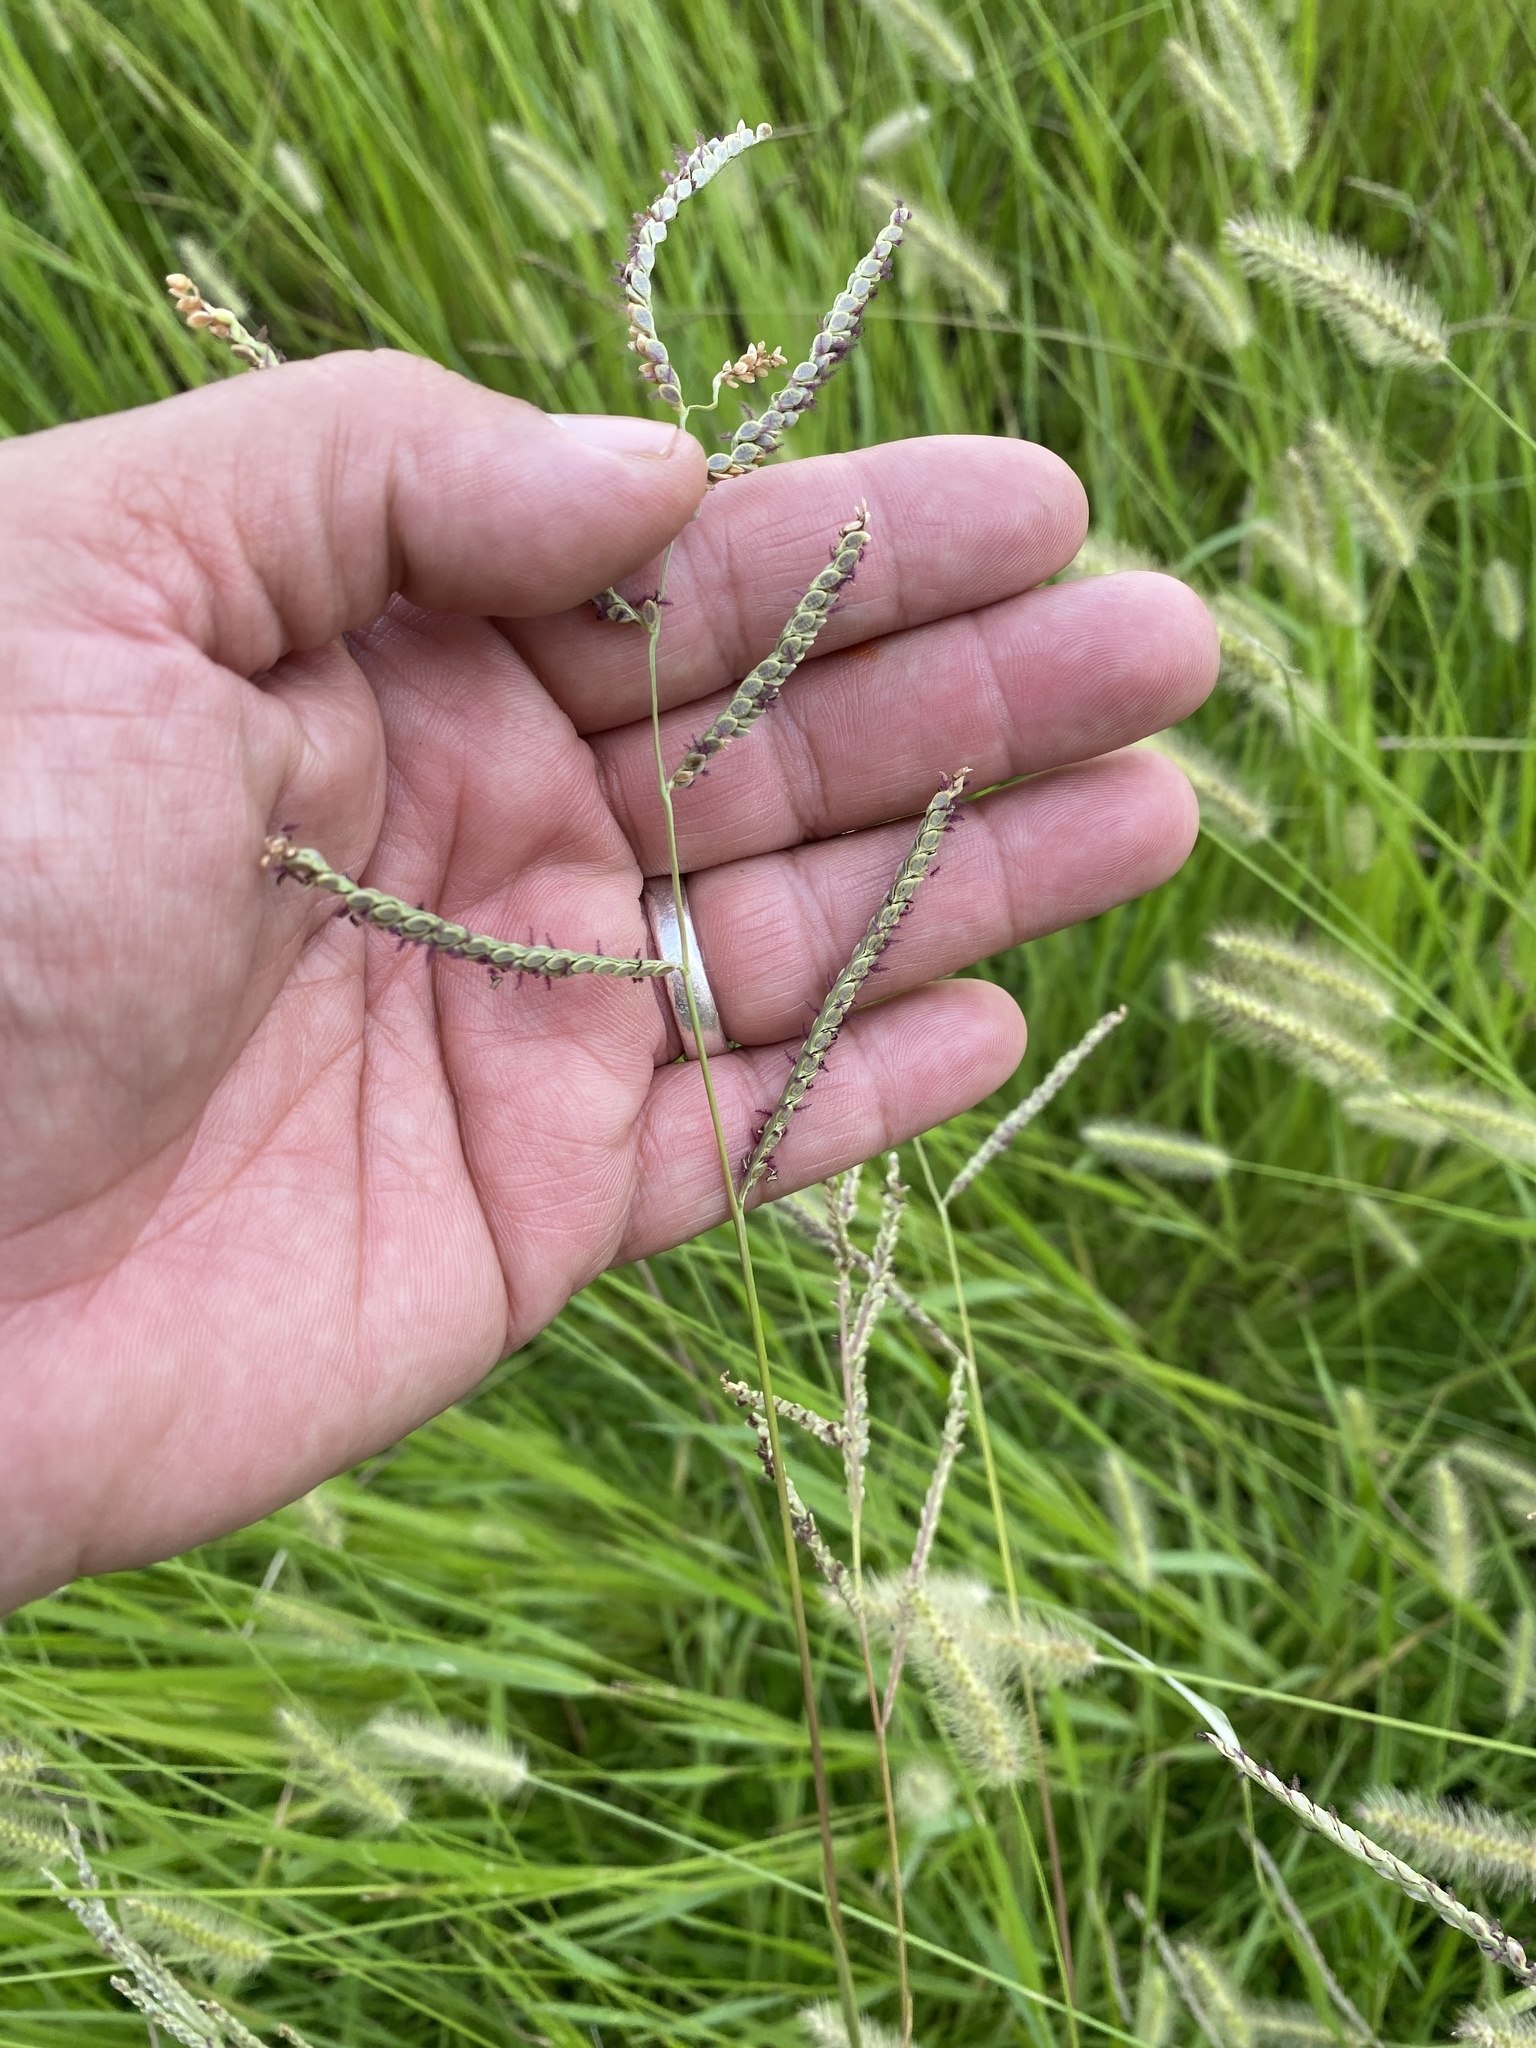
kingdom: Plantae
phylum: Tracheophyta
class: Liliopsida
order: Poales
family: Poaceae
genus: Paspalum
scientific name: Paspalum plicatulum
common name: Top paspalum
